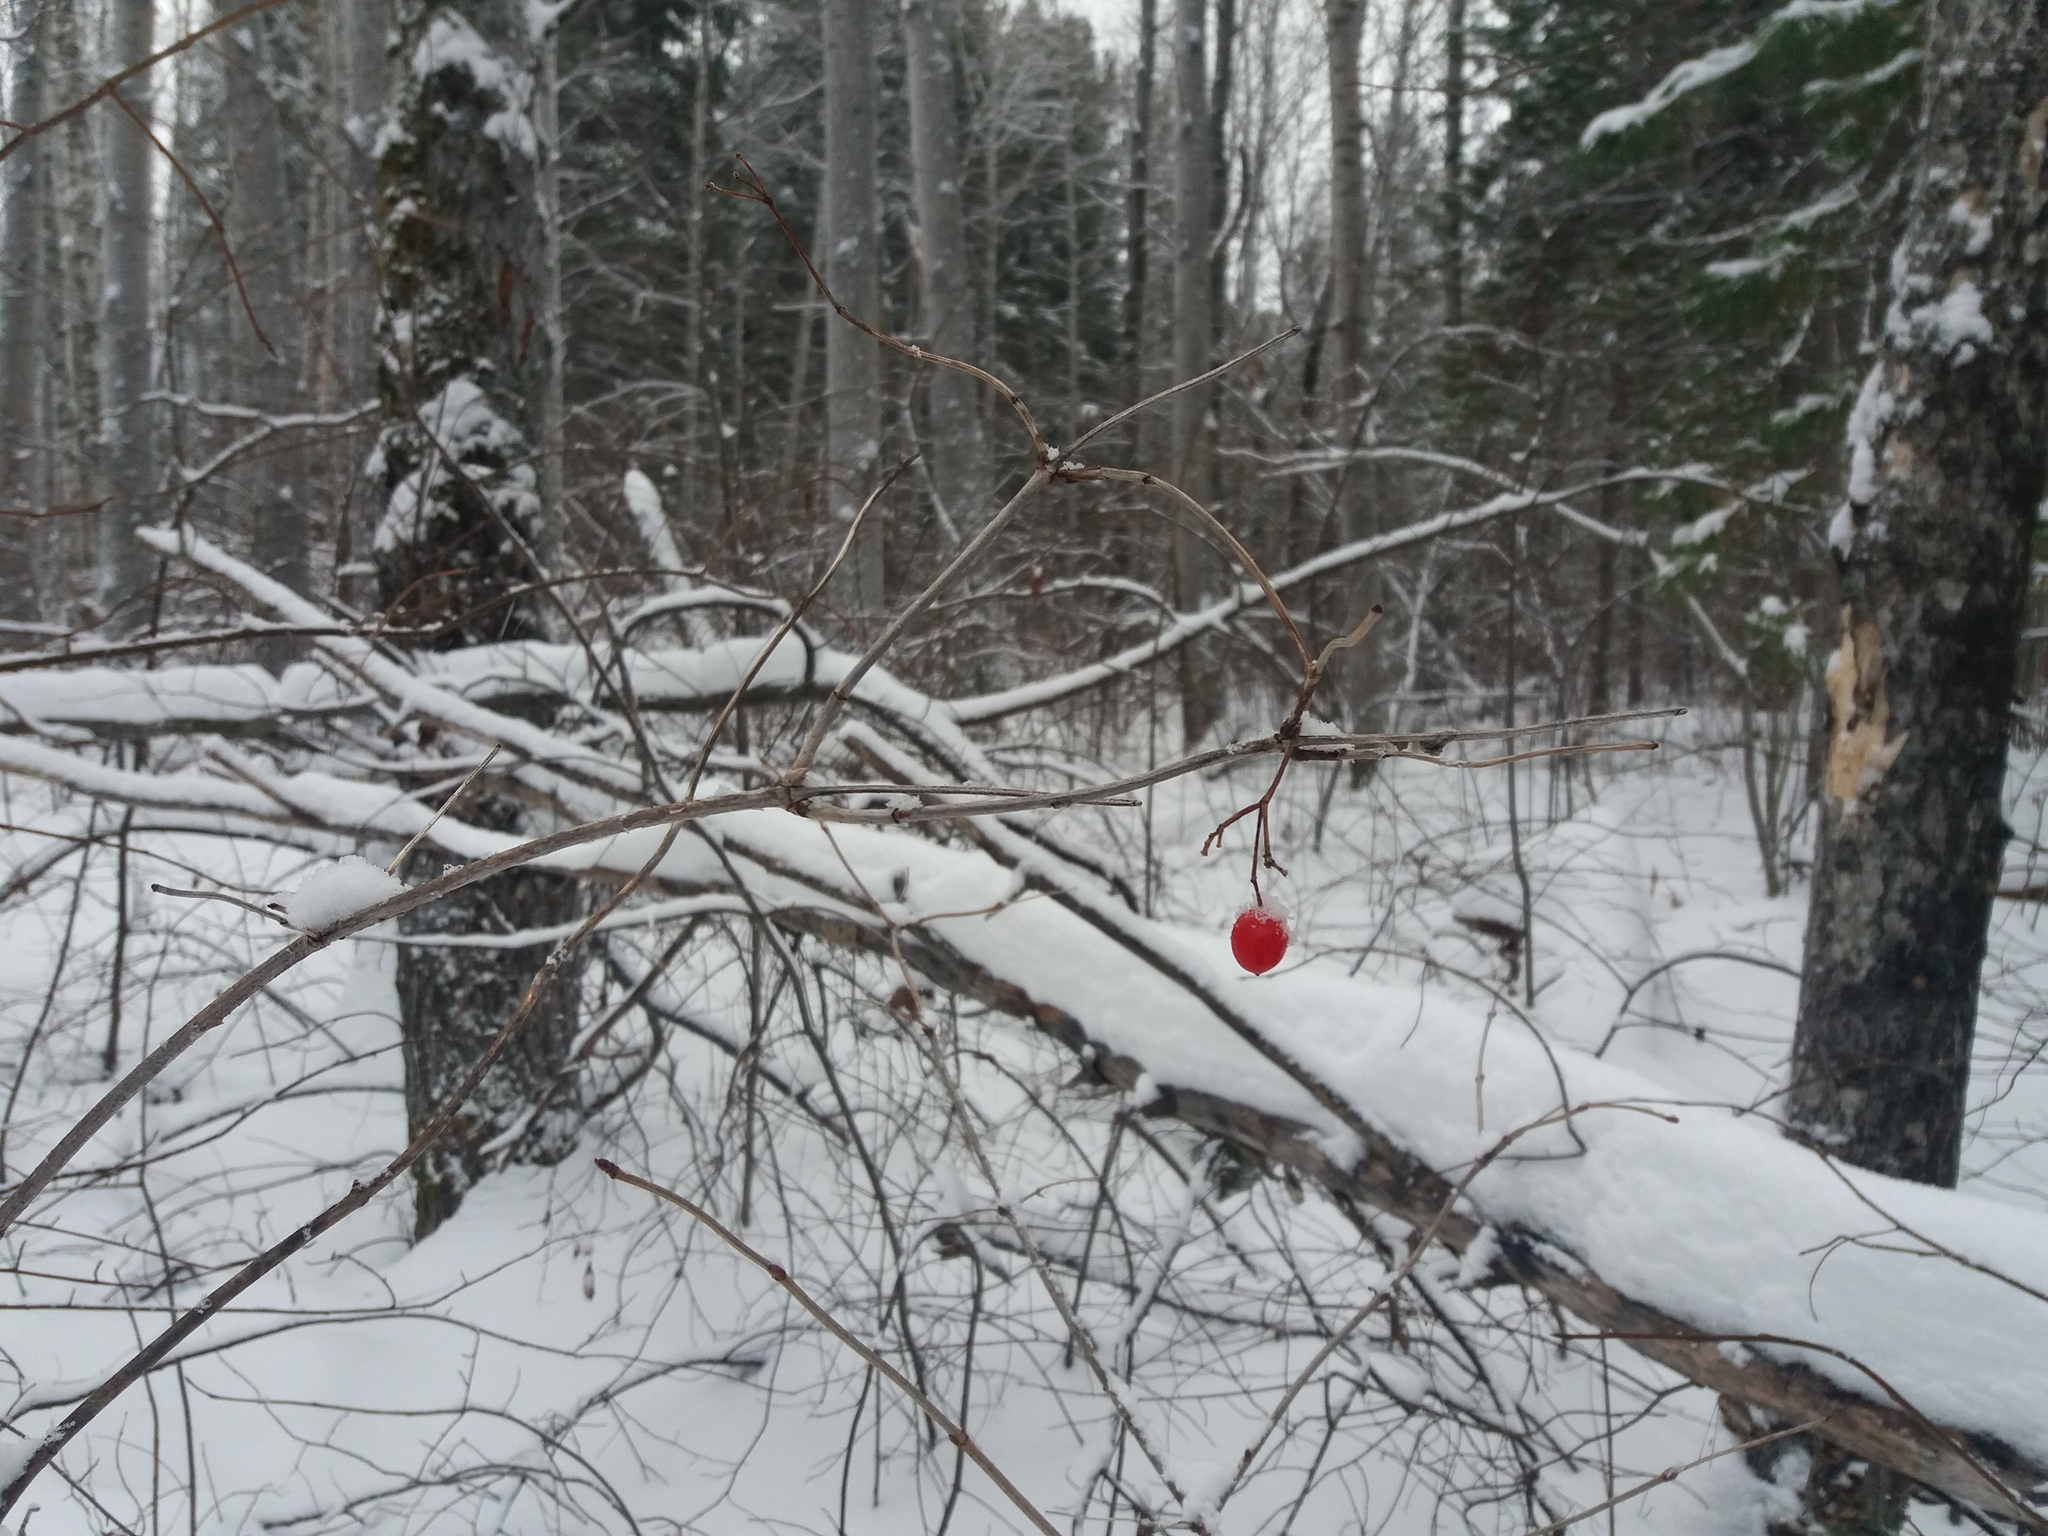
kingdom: Plantae
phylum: Tracheophyta
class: Magnoliopsida
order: Dipsacales
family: Viburnaceae
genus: Viburnum
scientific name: Viburnum opulus
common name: Guelder-rose
